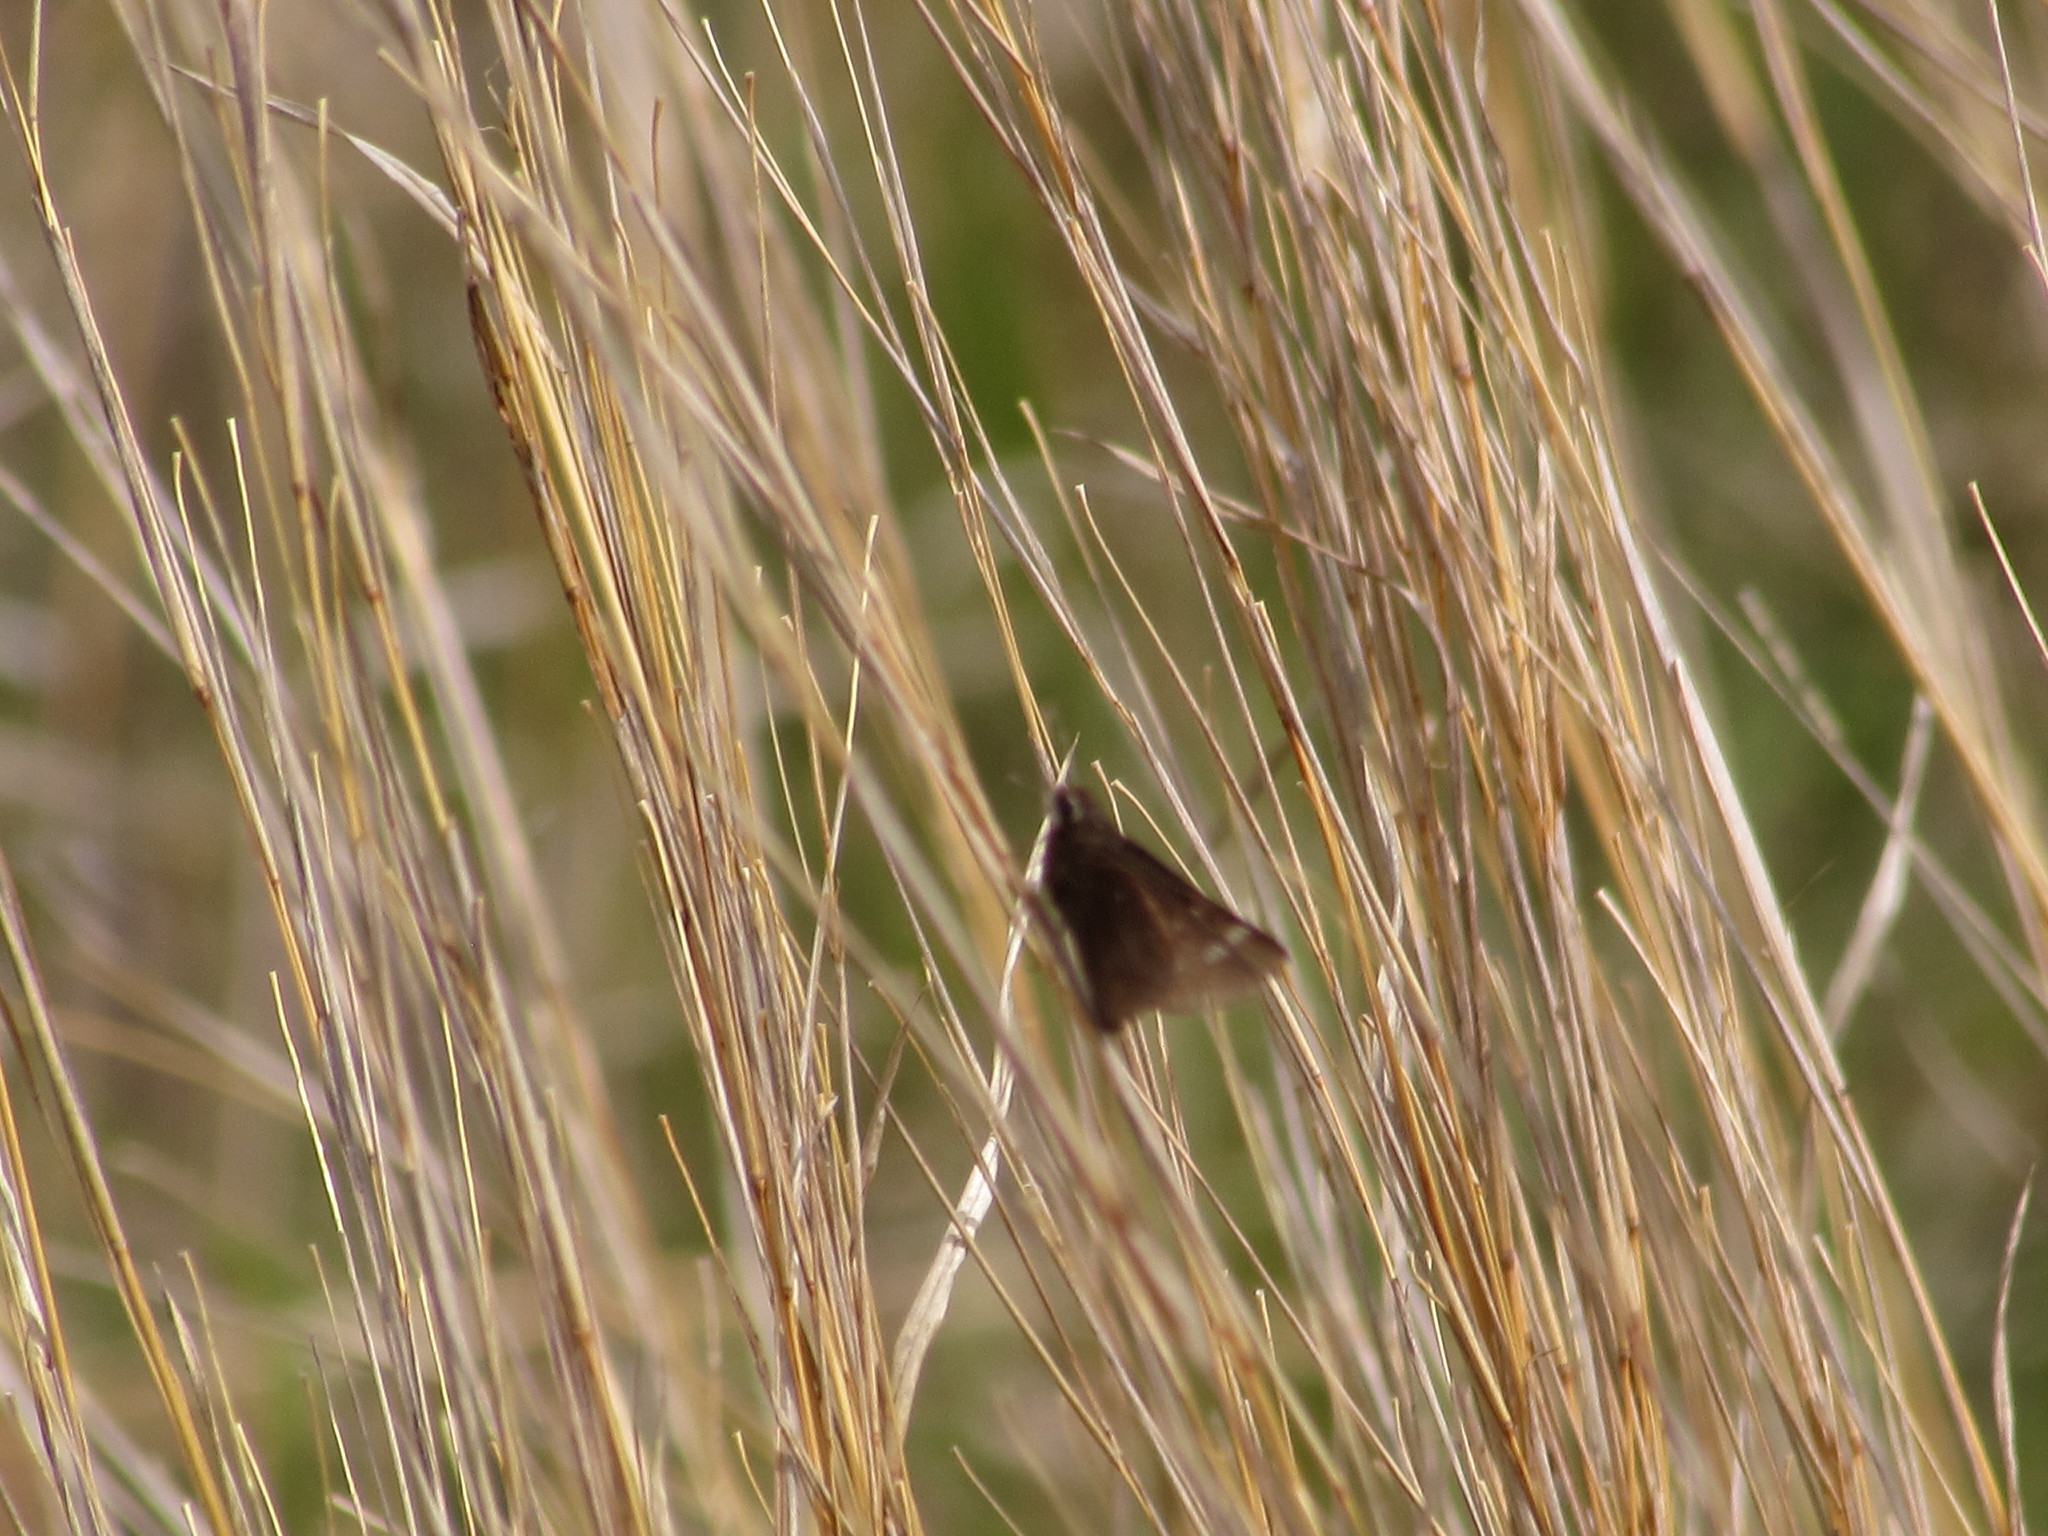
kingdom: Animalia
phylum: Arthropoda
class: Insecta
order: Lepidoptera
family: Hesperiidae
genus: Atrytonopsis
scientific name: Atrytonopsis hianna
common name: Dusted skipper
